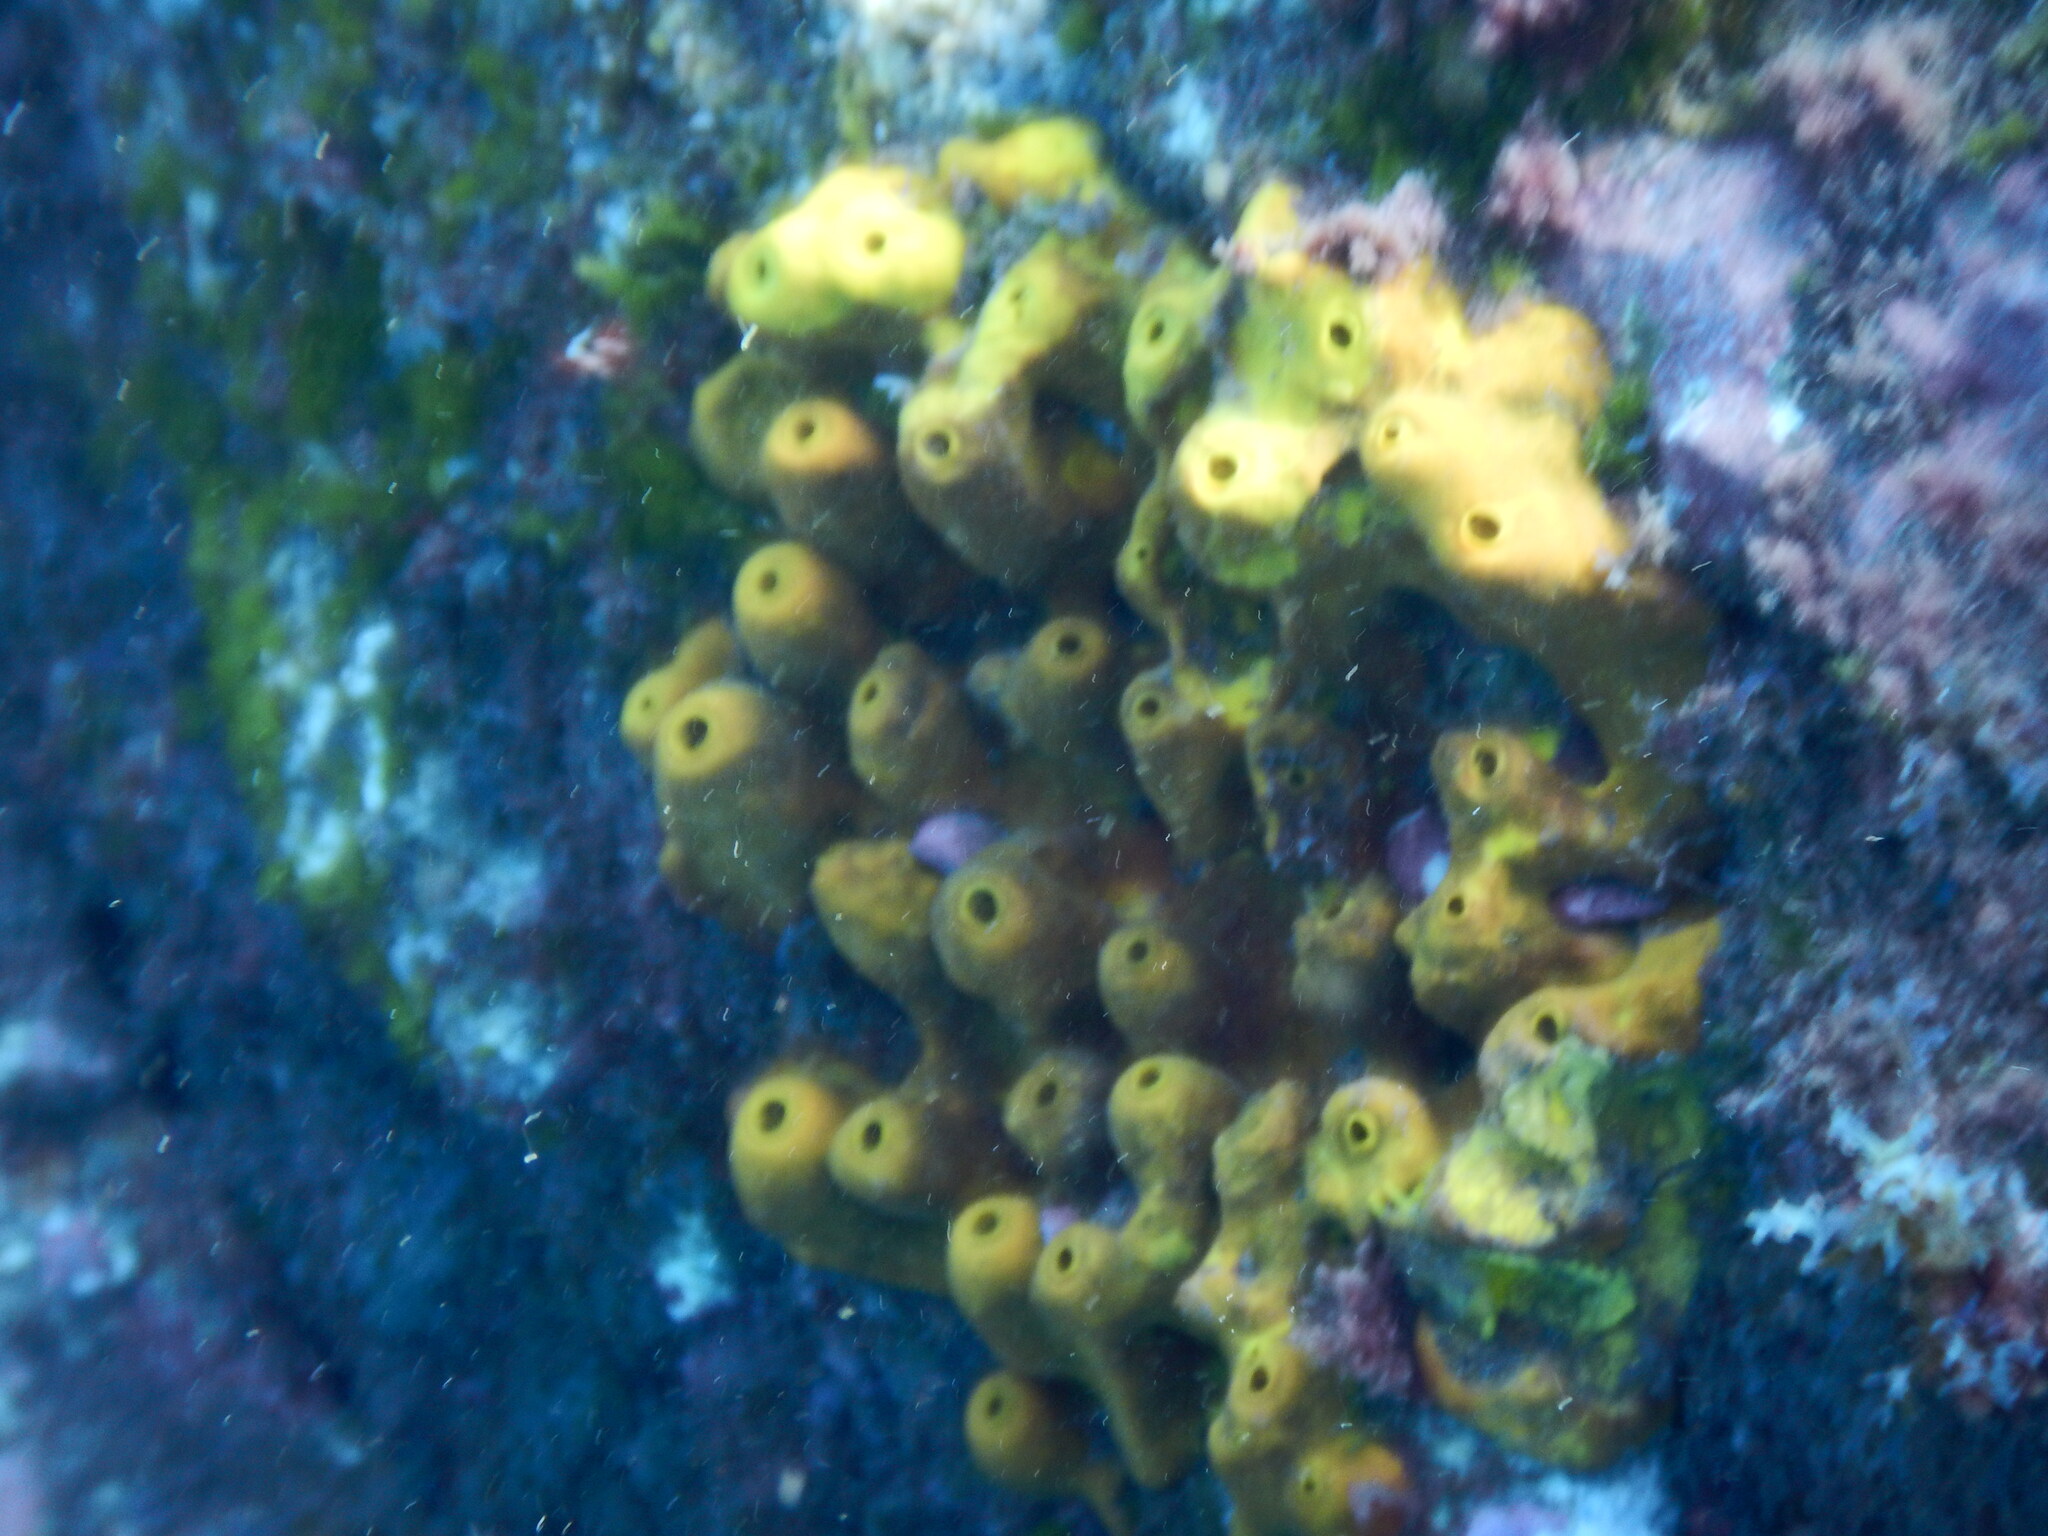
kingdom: Animalia
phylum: Porifera
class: Demospongiae
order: Verongiida
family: Aplysinidae
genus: Aplysina
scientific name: Aplysina aerophoba
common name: Aureate sponge
